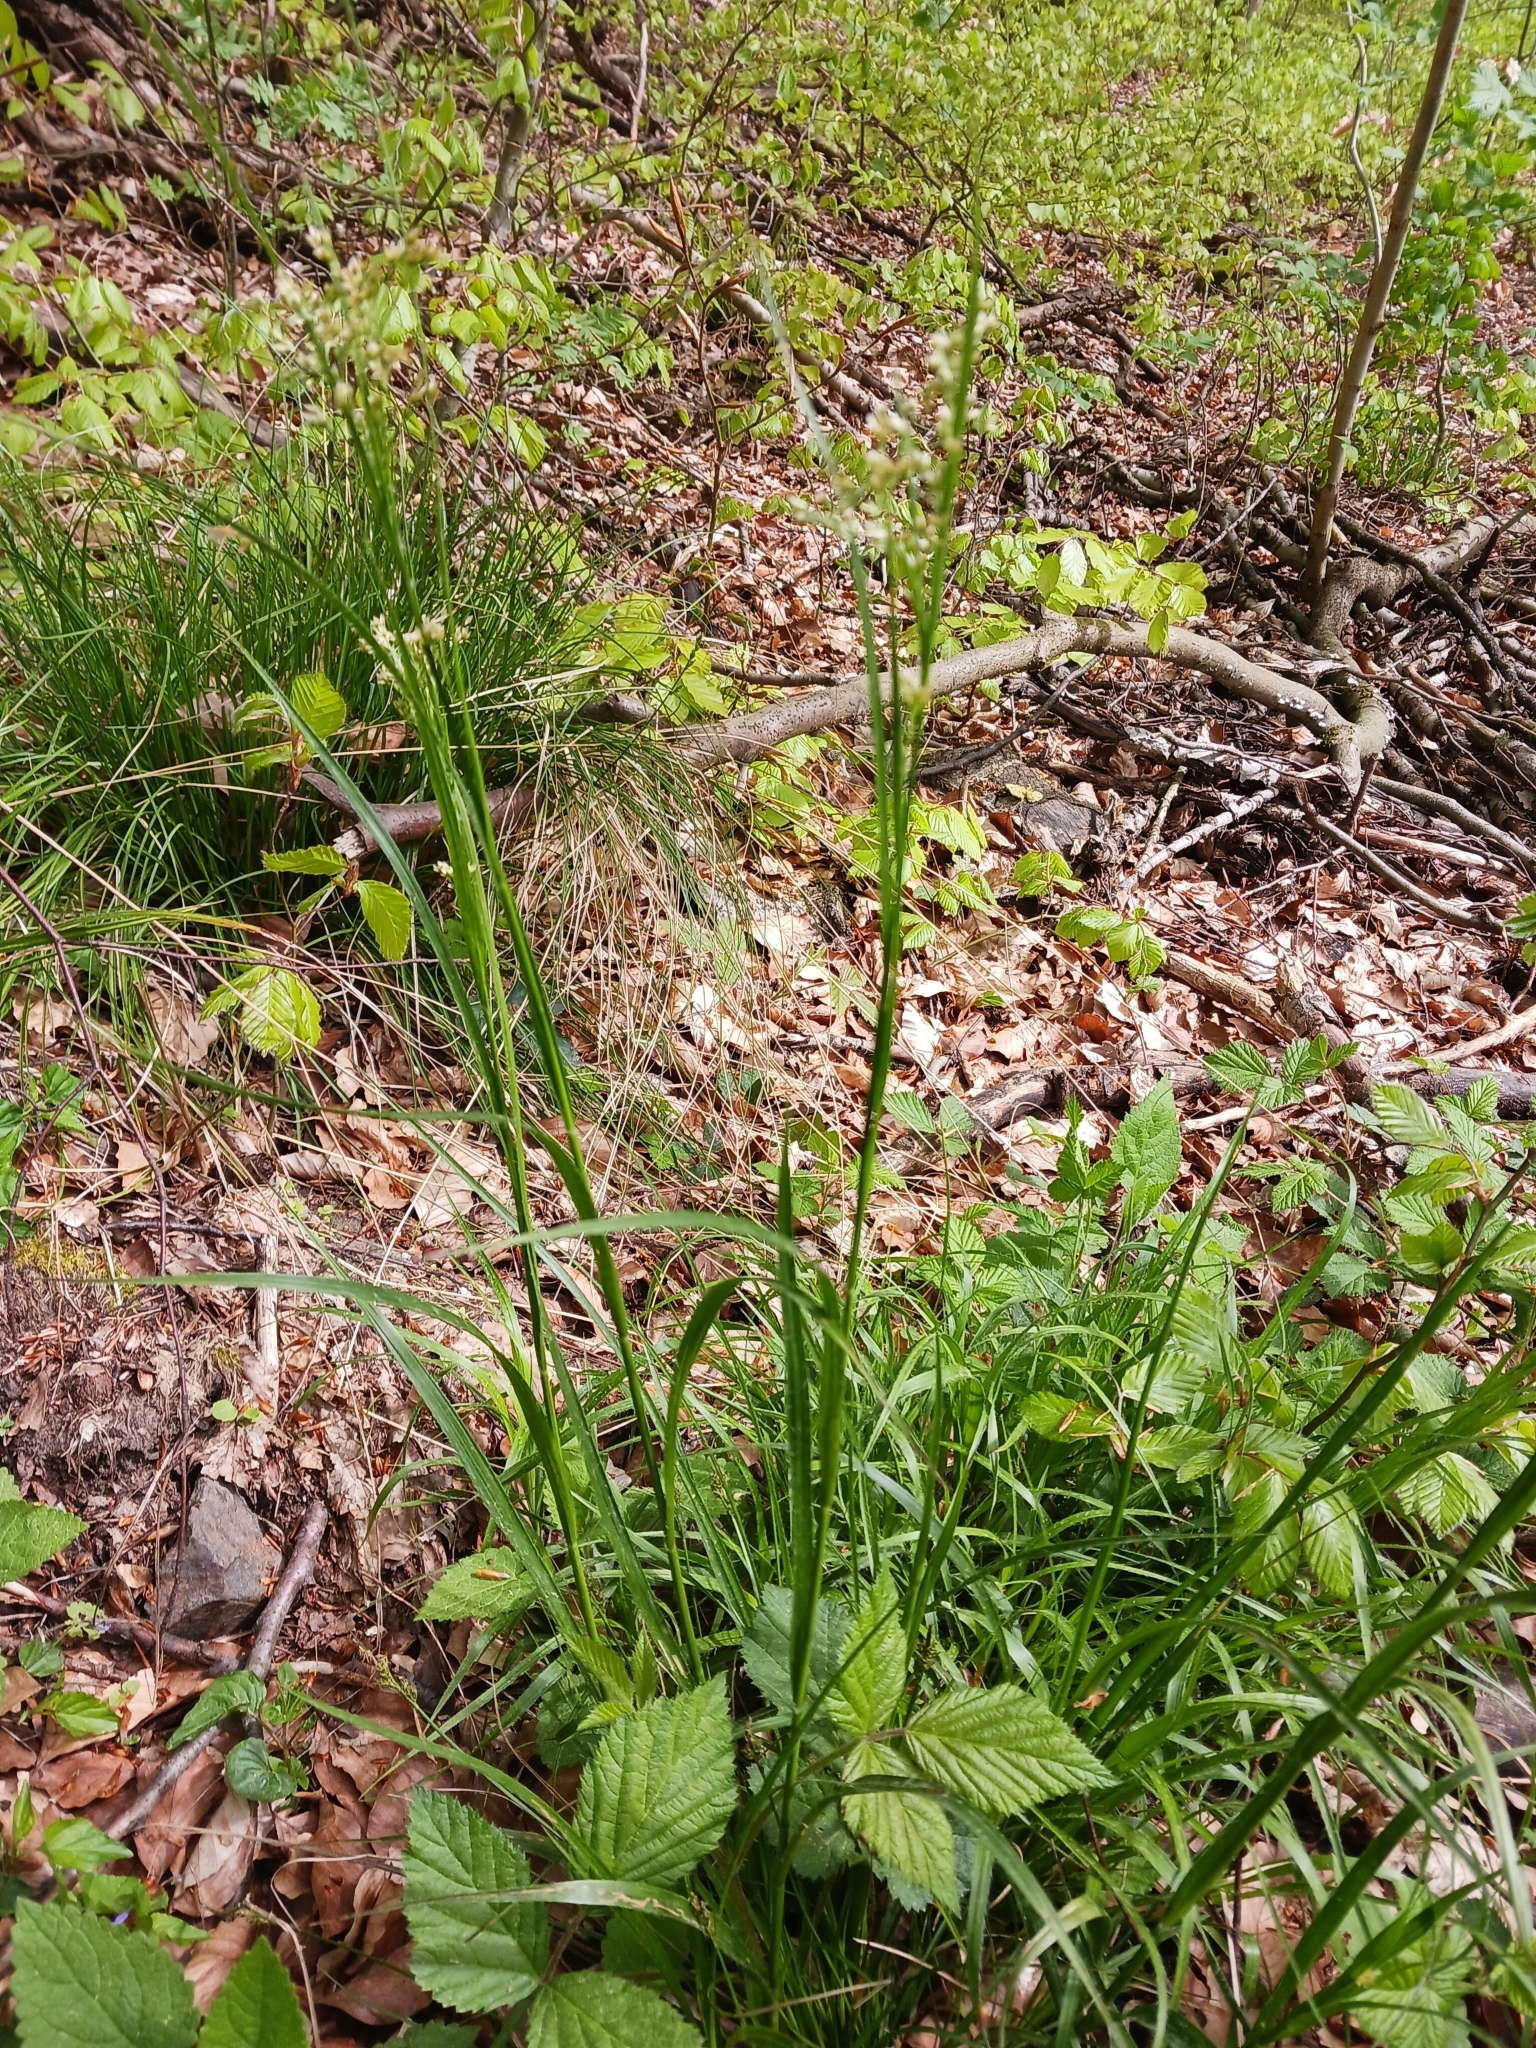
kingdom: Plantae
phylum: Tracheophyta
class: Liliopsida
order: Poales
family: Juncaceae
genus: Luzula
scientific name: Luzula luzuloides
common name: White wood-rush
